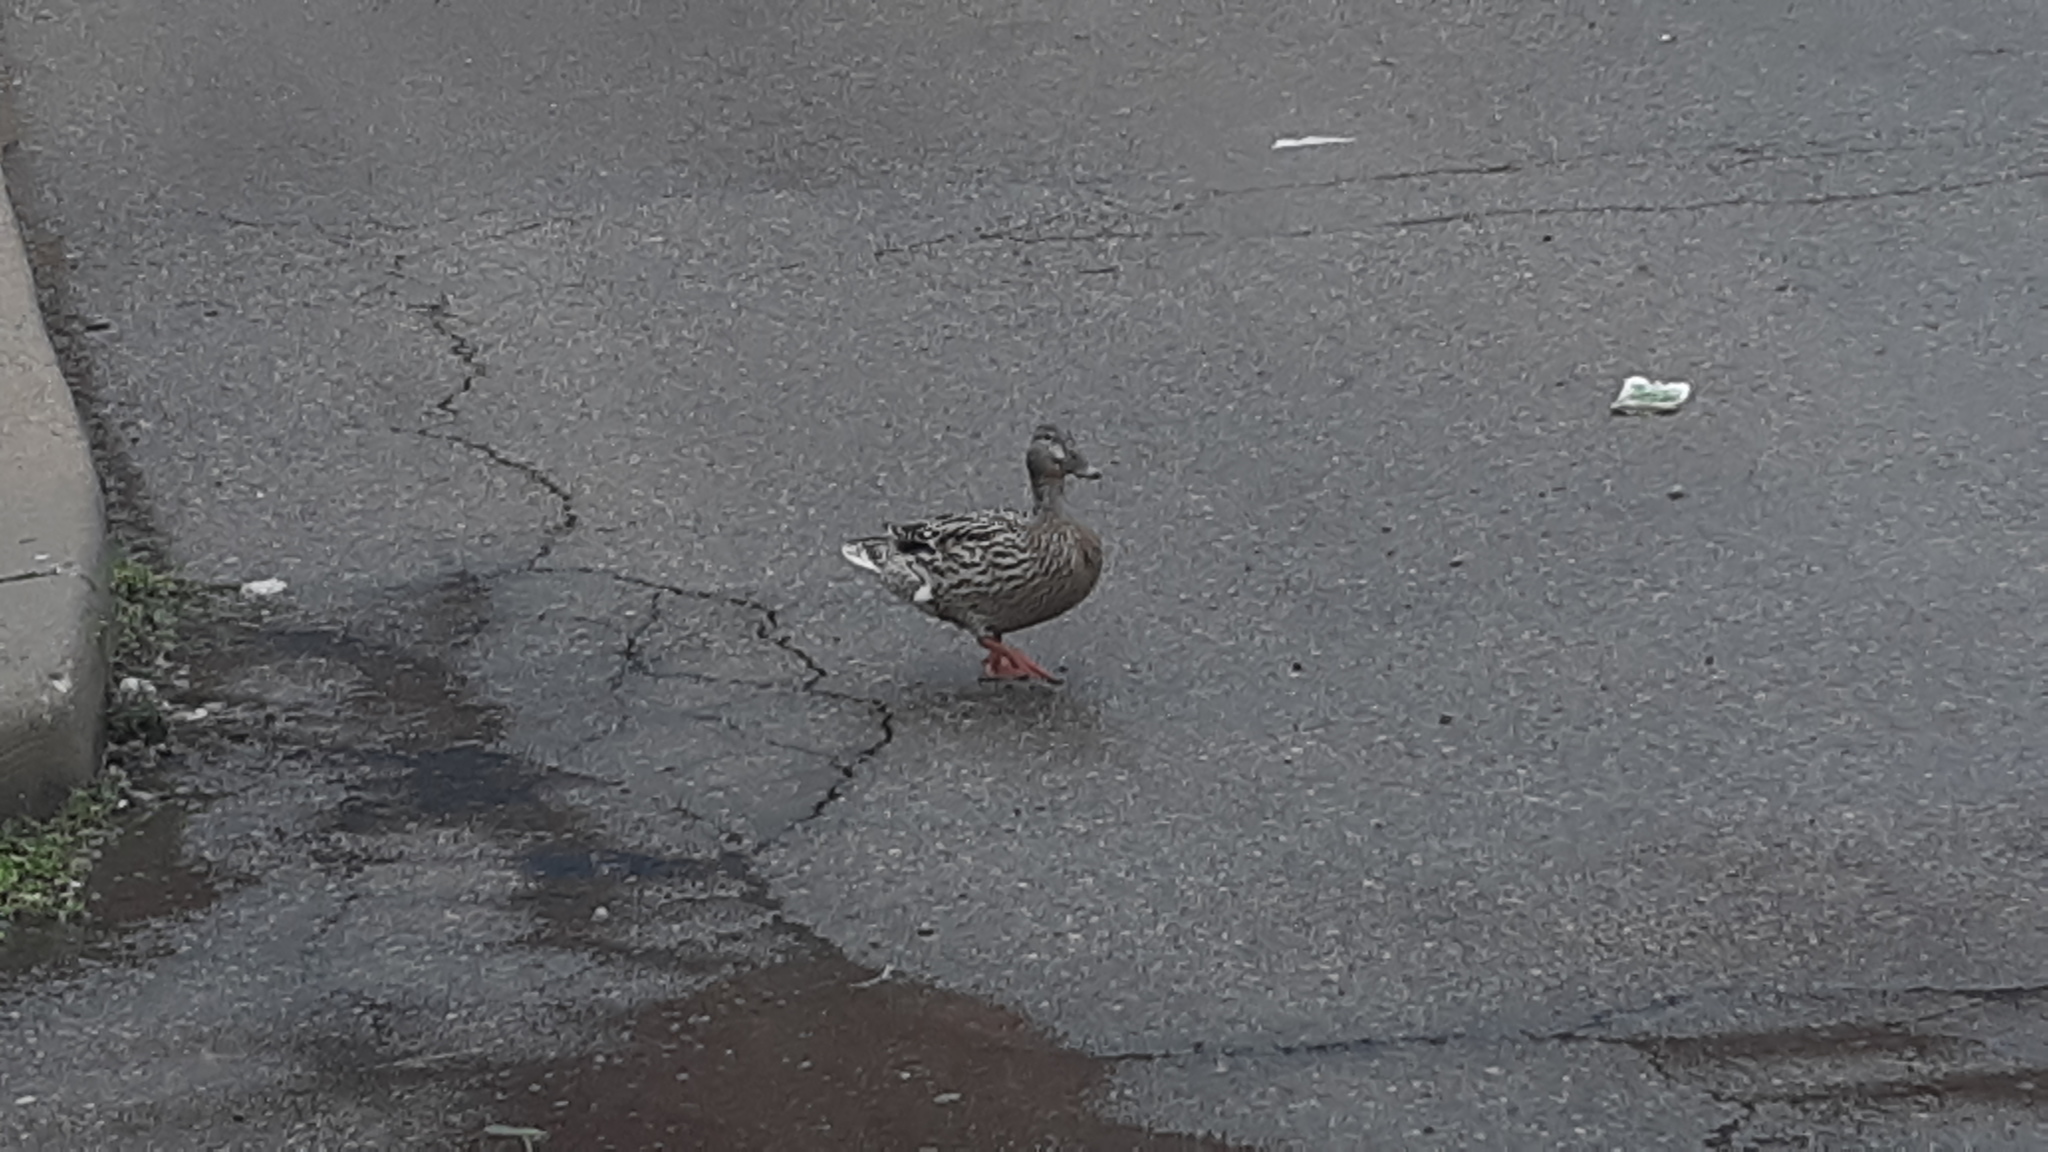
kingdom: Animalia
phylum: Chordata
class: Aves
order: Anseriformes
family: Anatidae
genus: Anas
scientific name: Anas platyrhynchos
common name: Mallard
